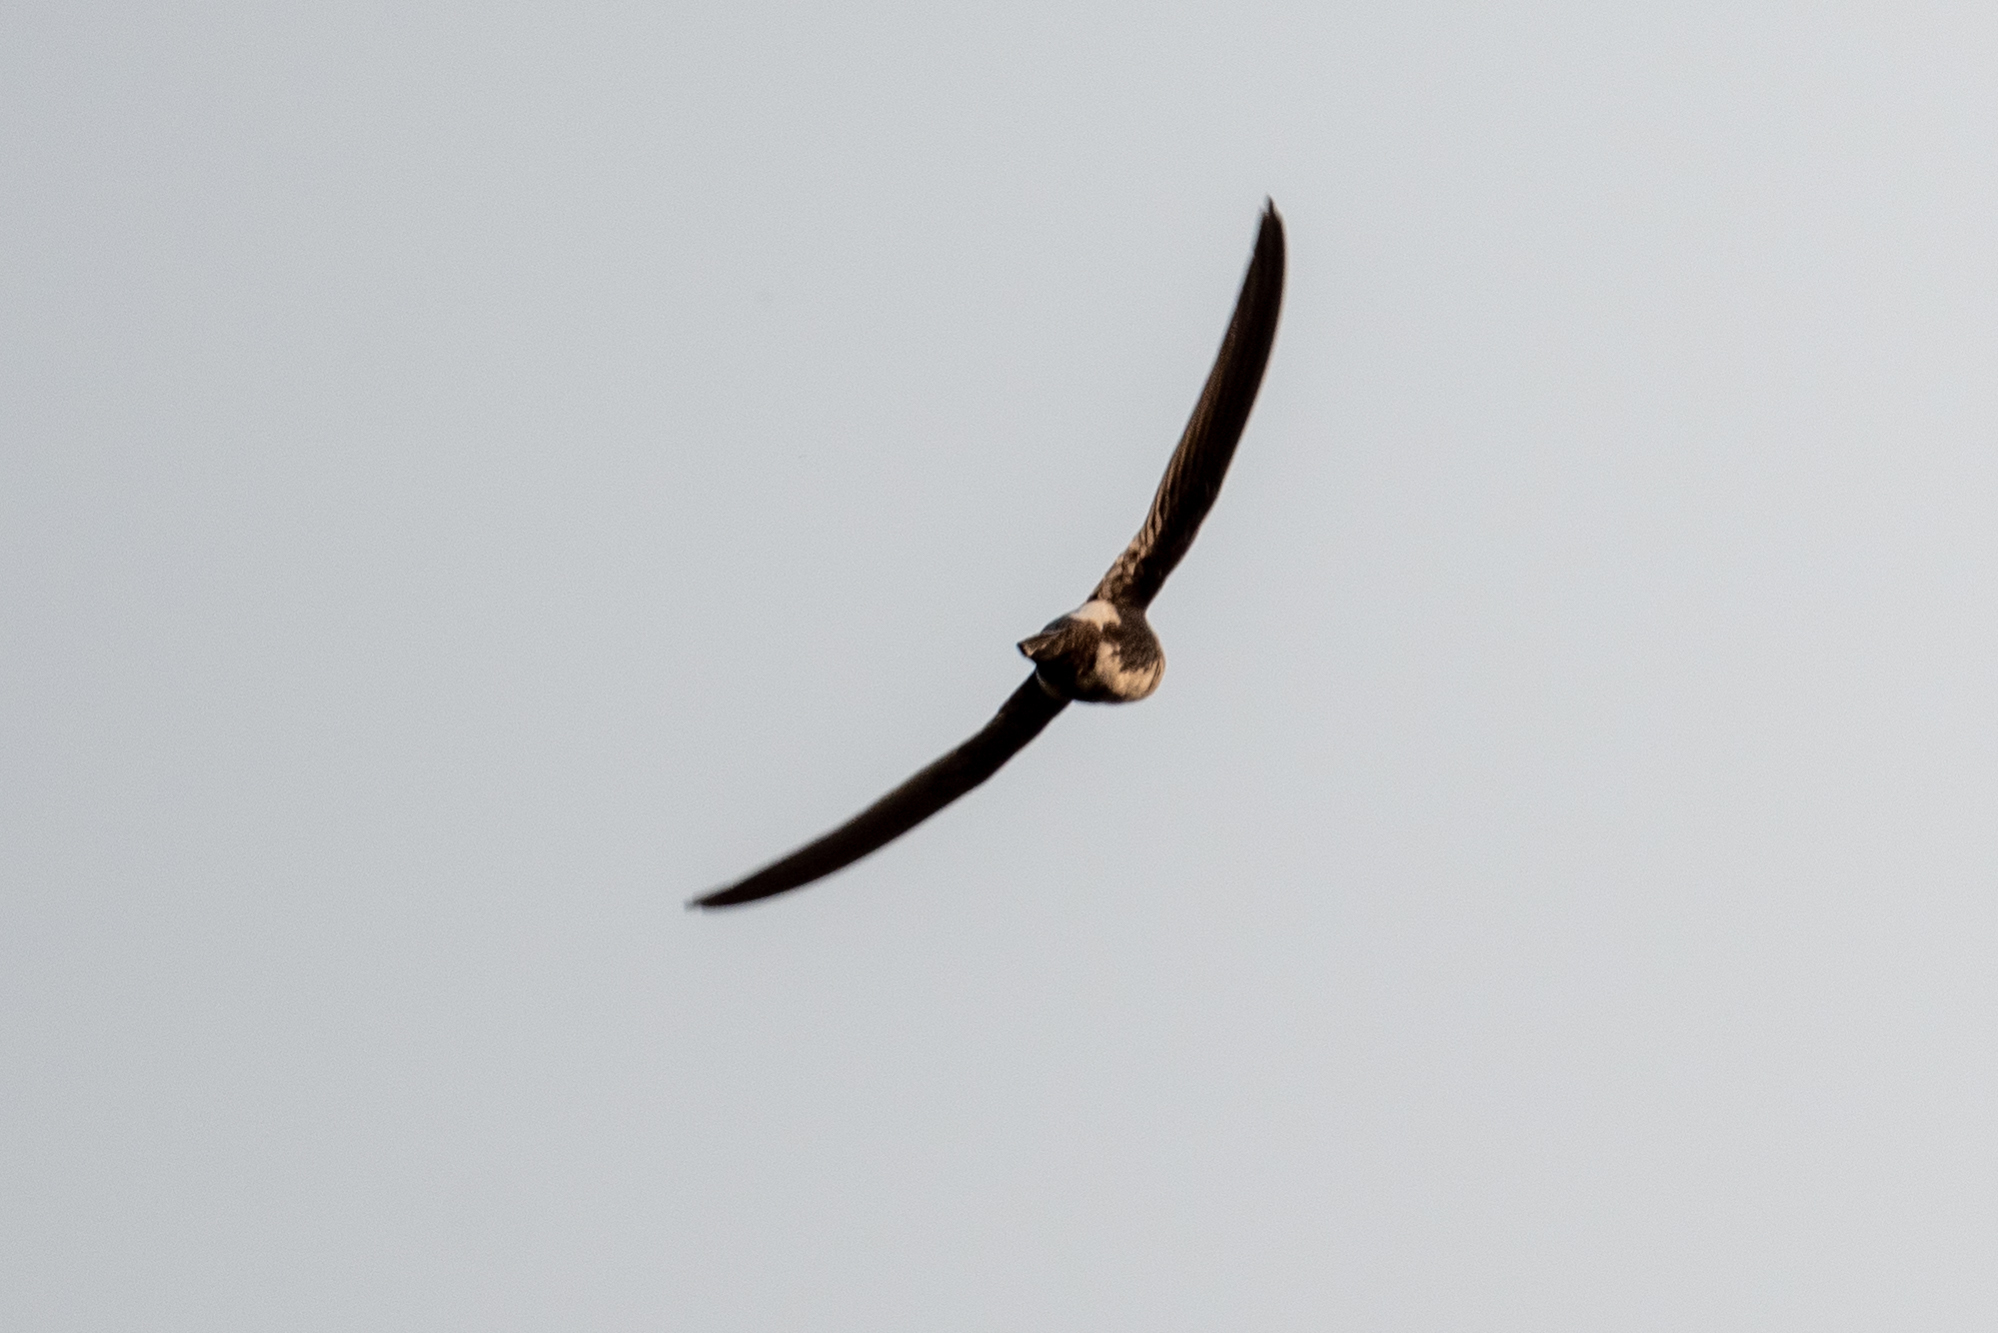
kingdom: Animalia
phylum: Chordata
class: Aves
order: Apodiformes
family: Apodidae
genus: Aeronautes
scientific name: Aeronautes saxatalis
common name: White-throated swift
